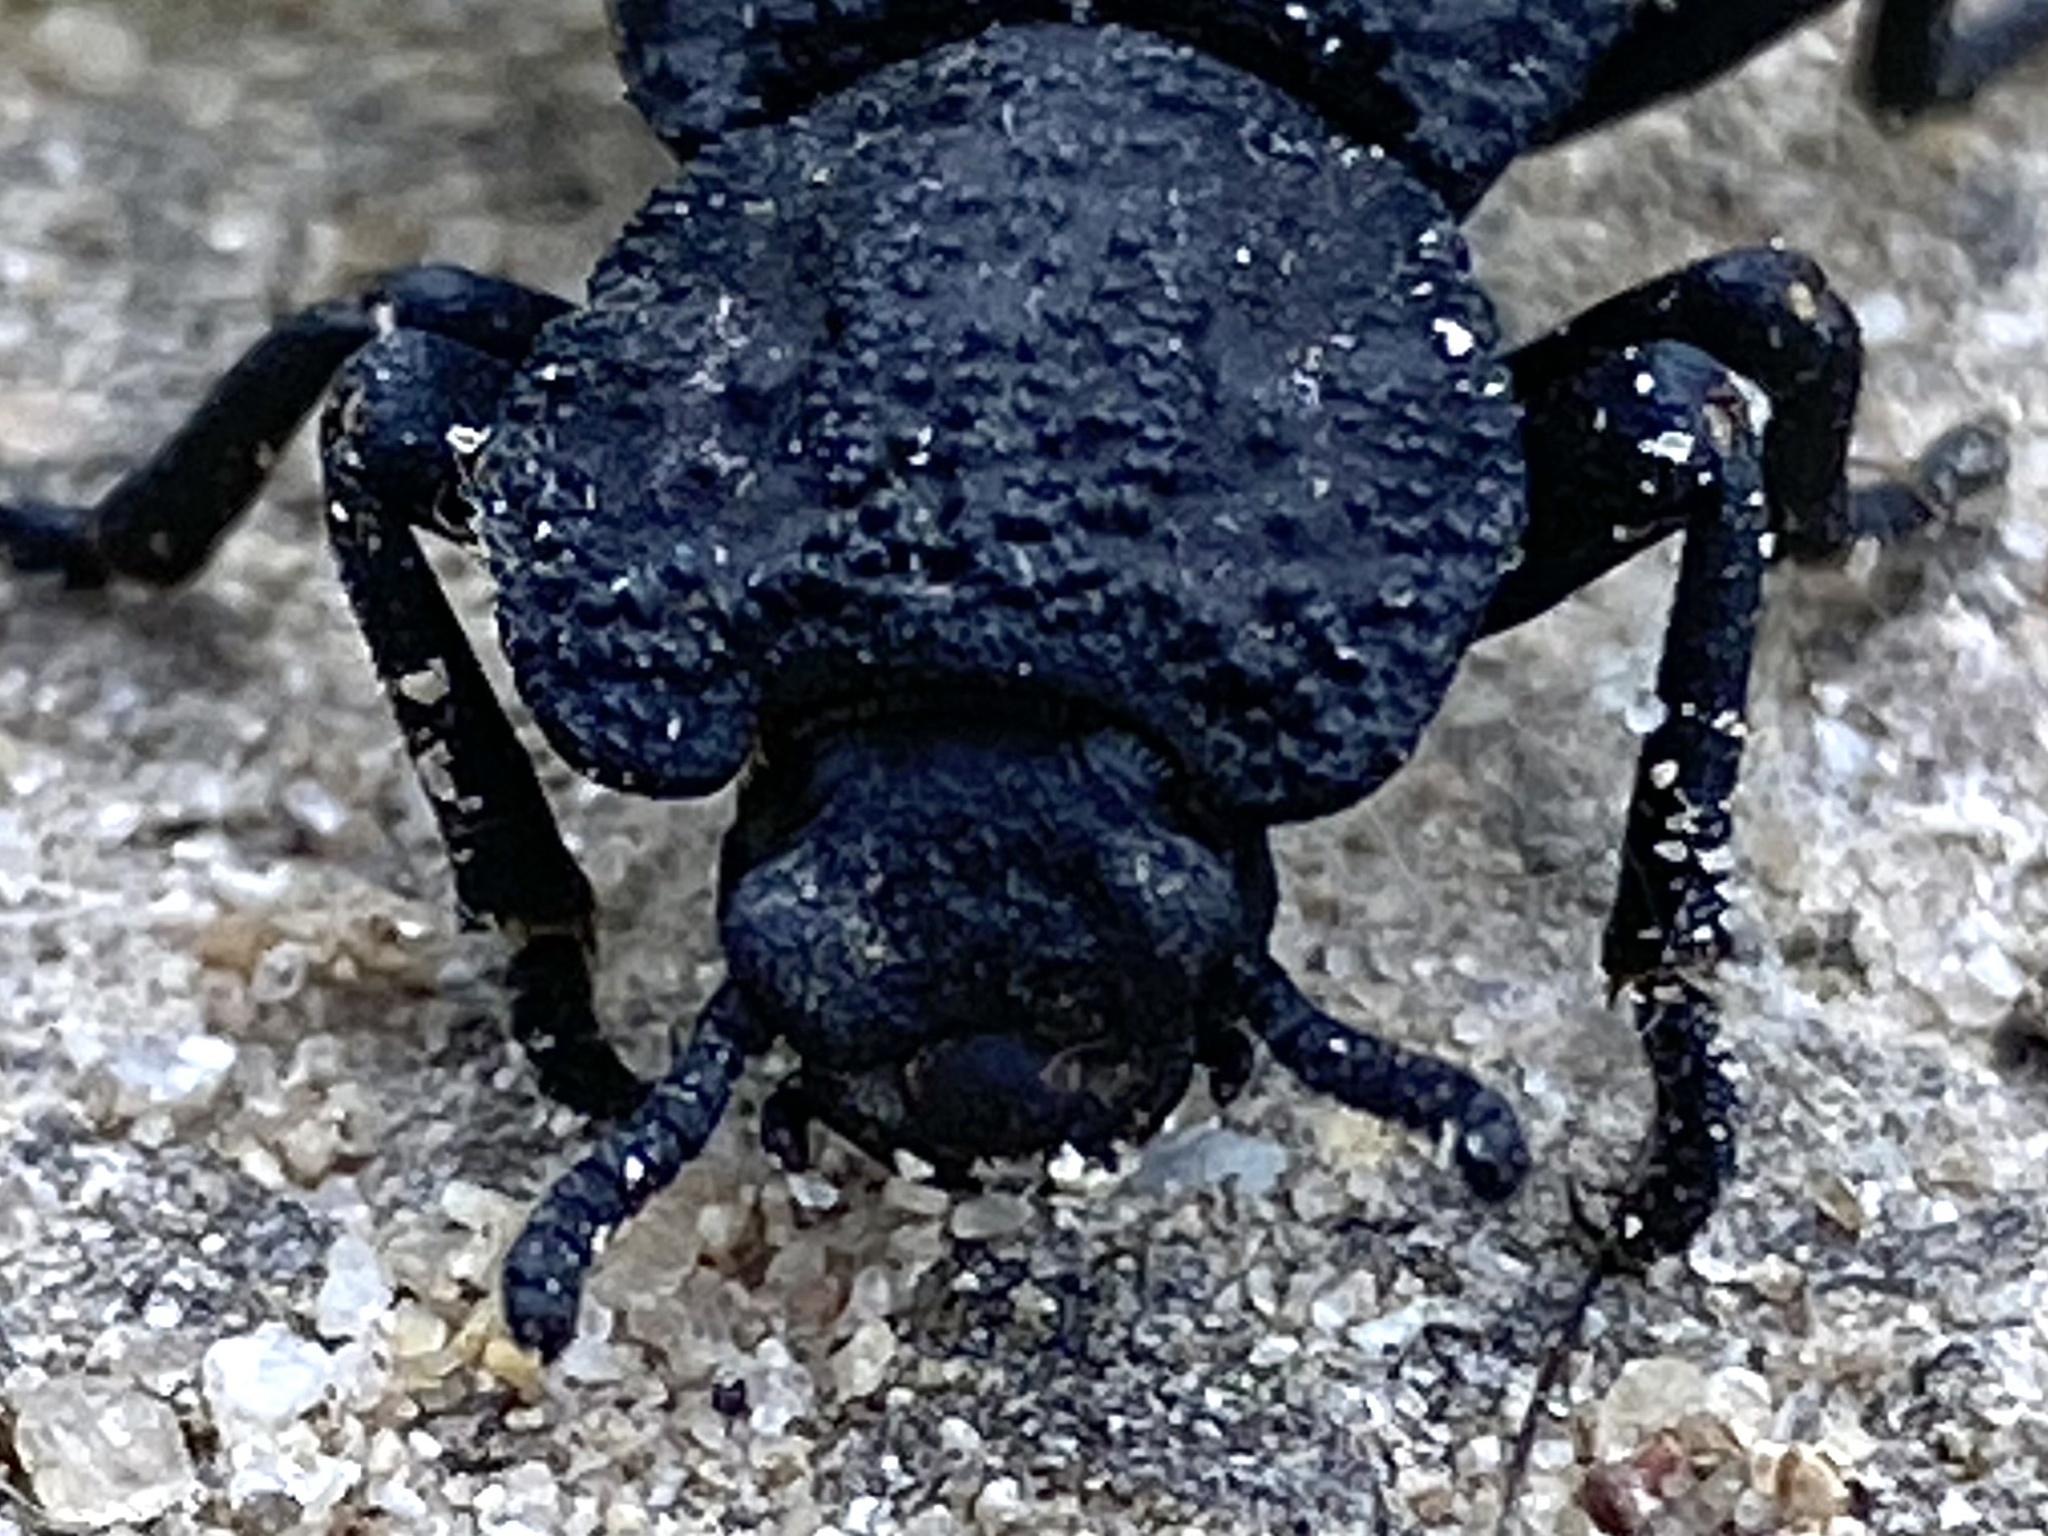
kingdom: Animalia
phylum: Arthropoda
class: Insecta
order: Coleoptera
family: Zopheridae
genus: Phloeodes
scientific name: Phloeodes diabolicus
